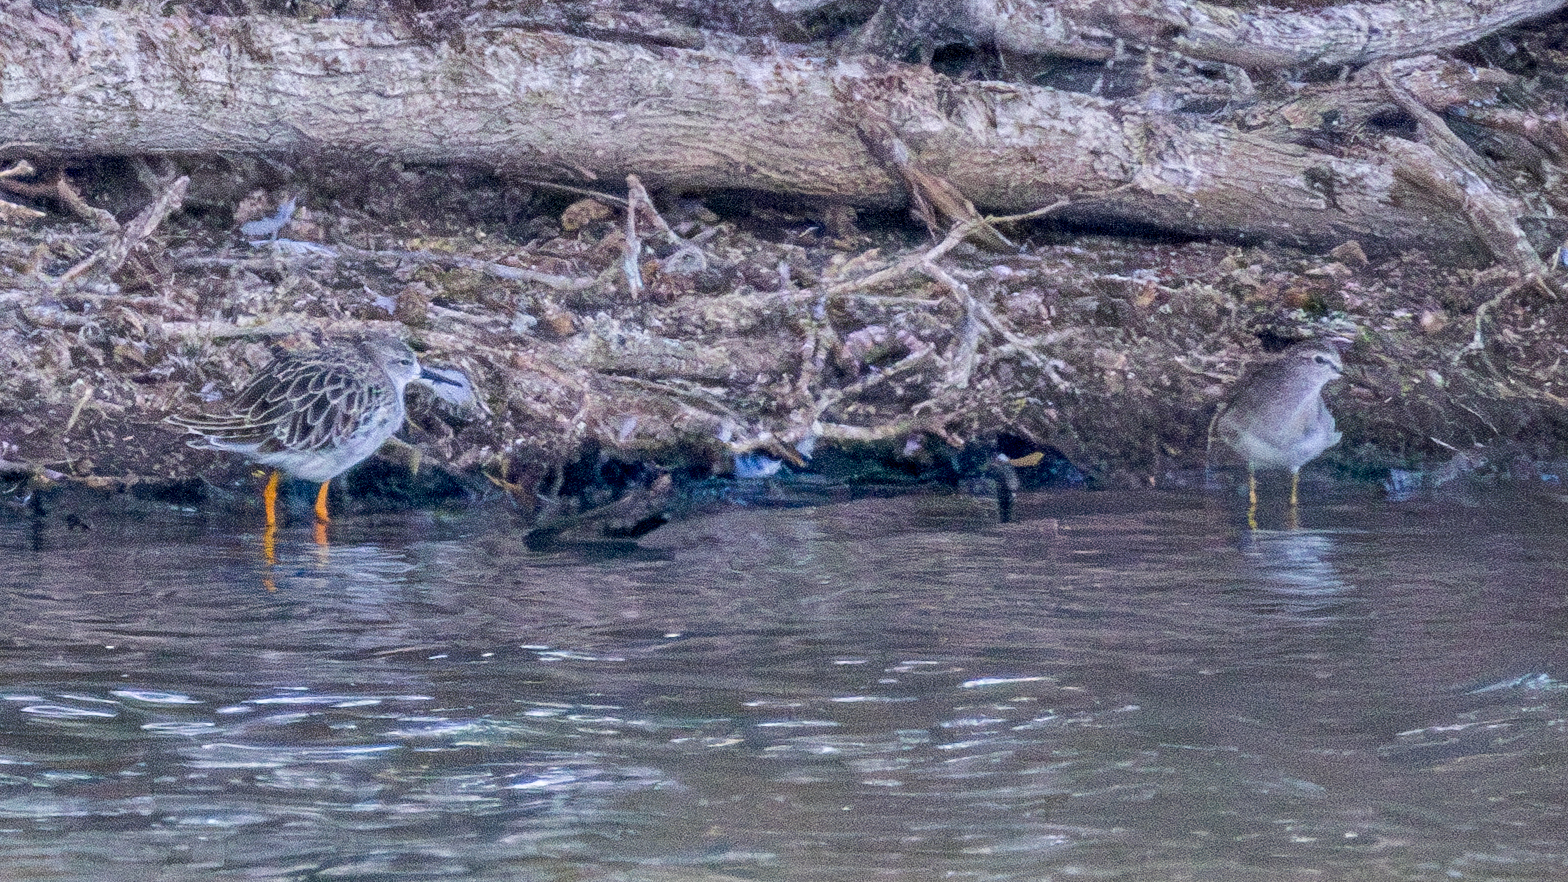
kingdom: Animalia
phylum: Chordata
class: Aves
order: Charadriiformes
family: Scolopacidae
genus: Calidris
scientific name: Calidris pugnax
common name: Ruff
